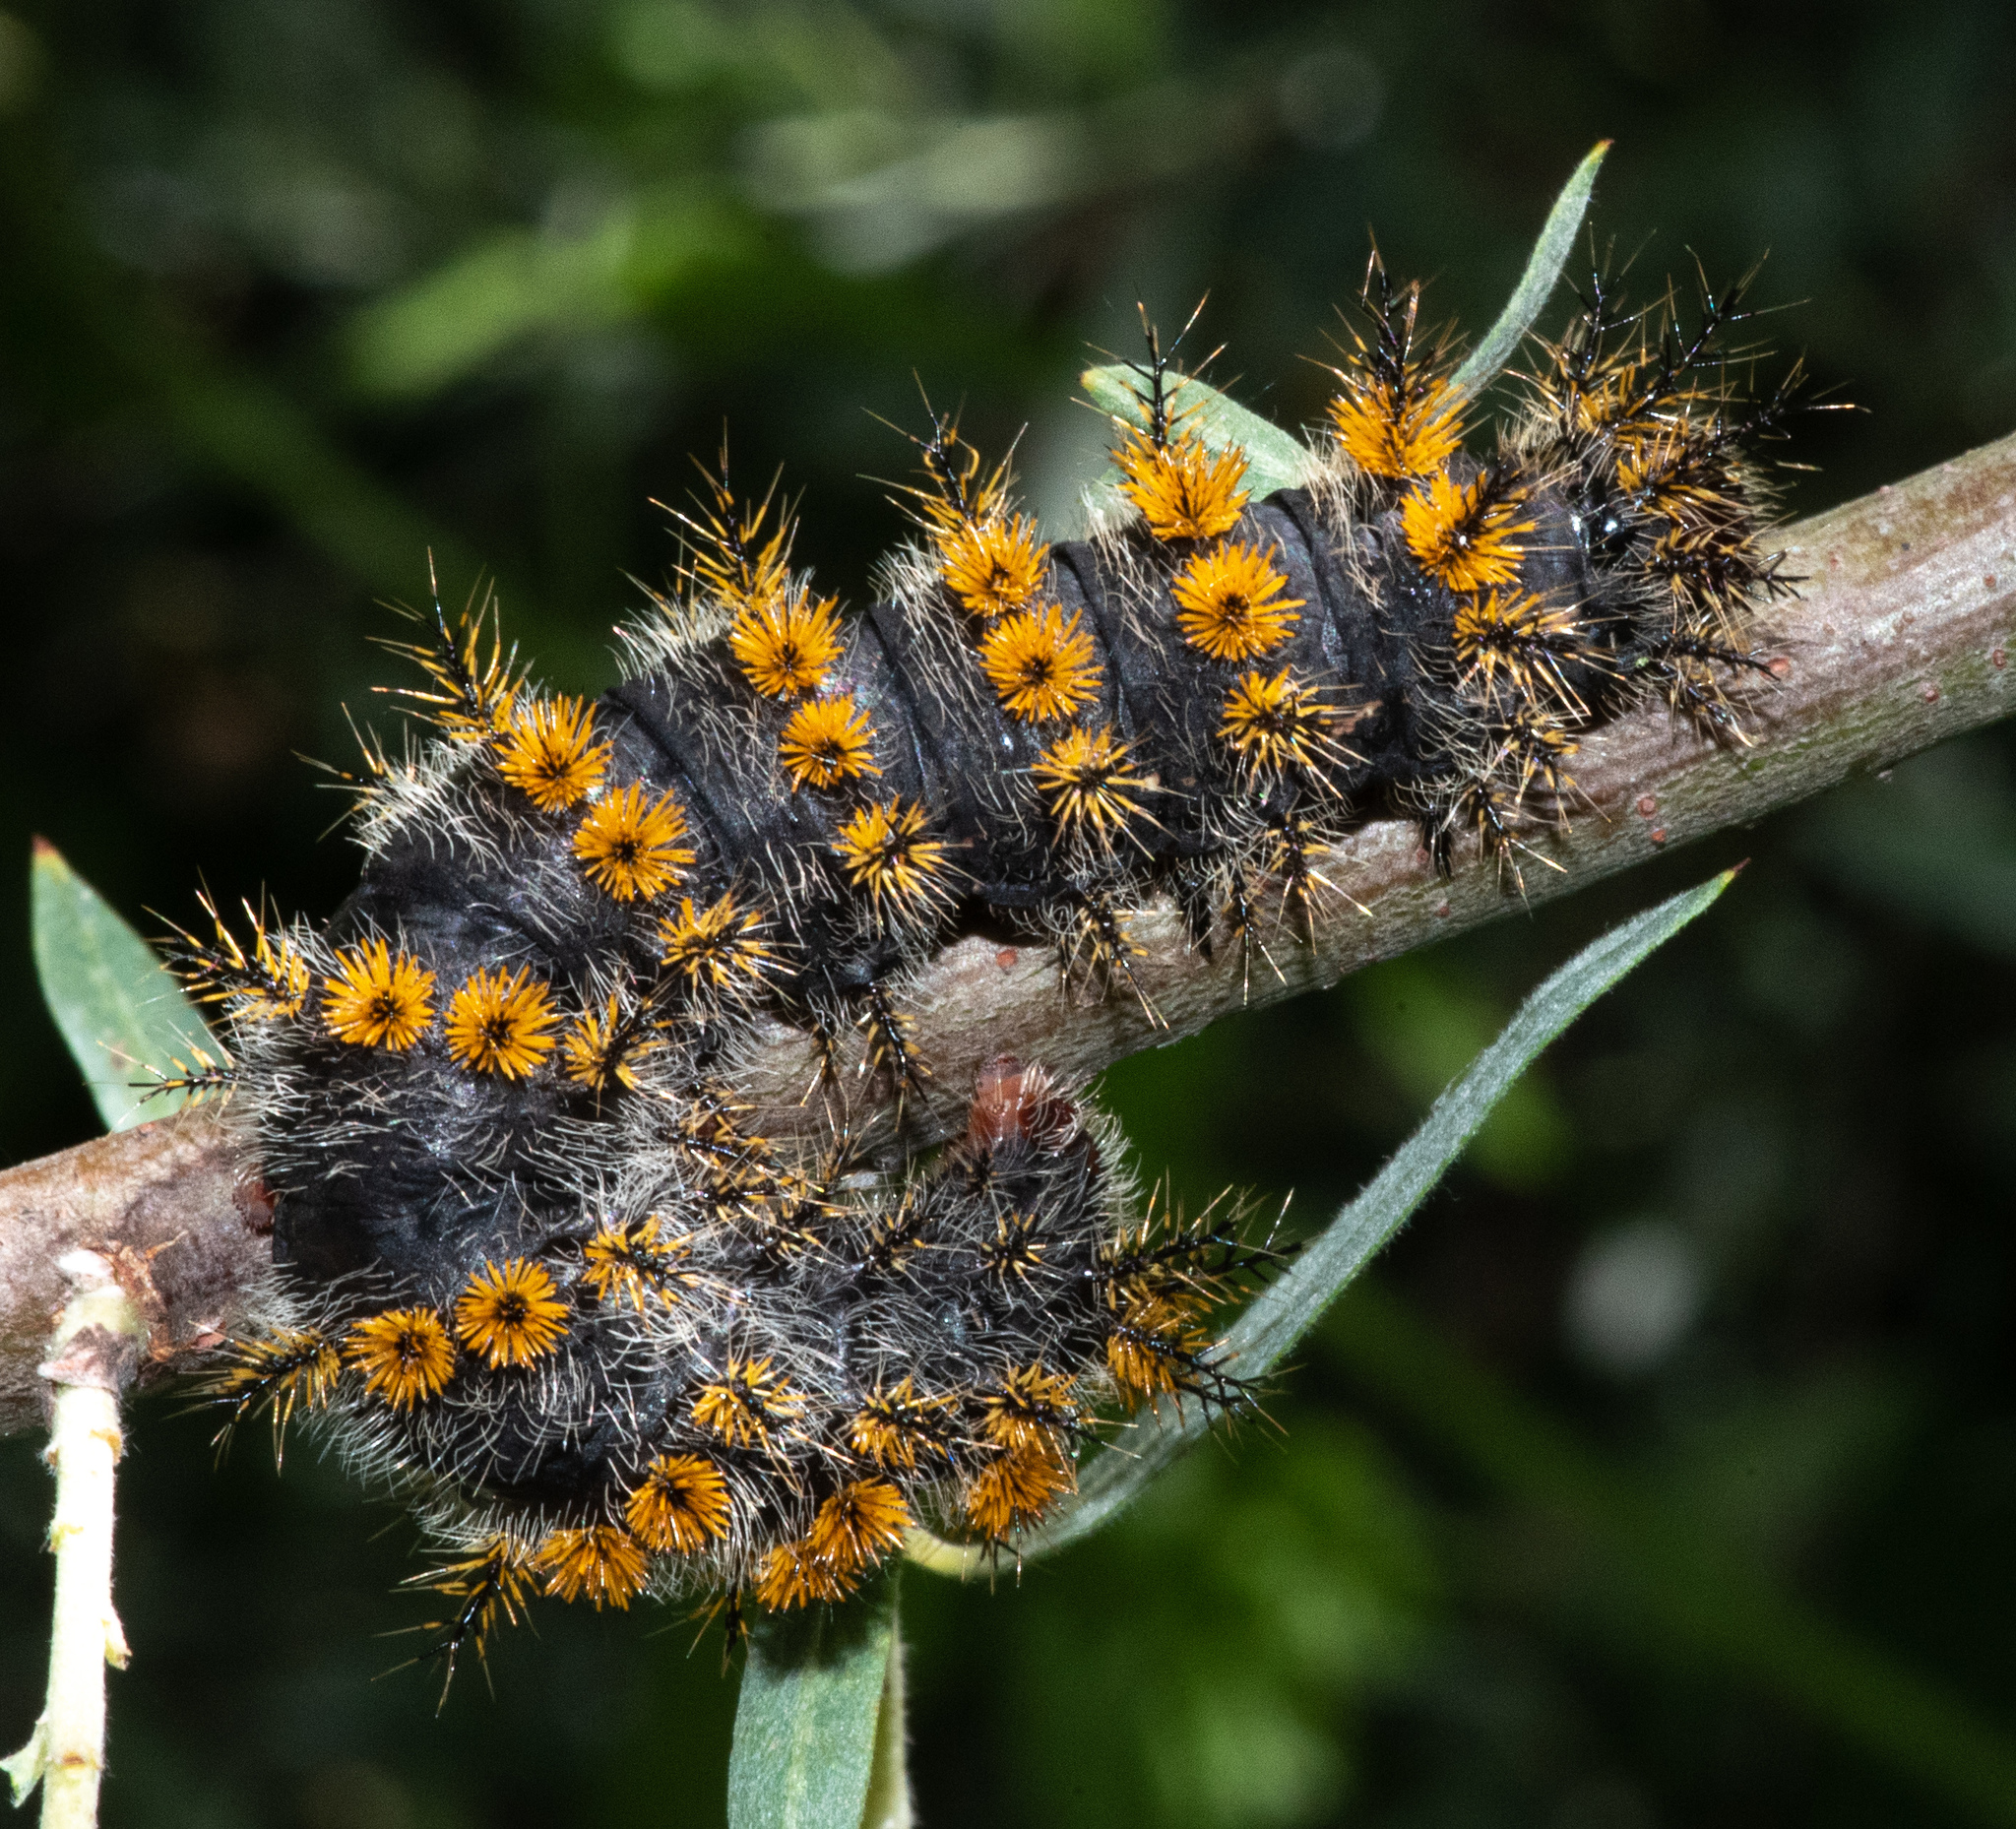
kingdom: Animalia
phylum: Arthropoda
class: Insecta
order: Lepidoptera
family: Saturniidae
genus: Hemileuca
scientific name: Hemileuca eglanterina
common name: Western sheepmoth
